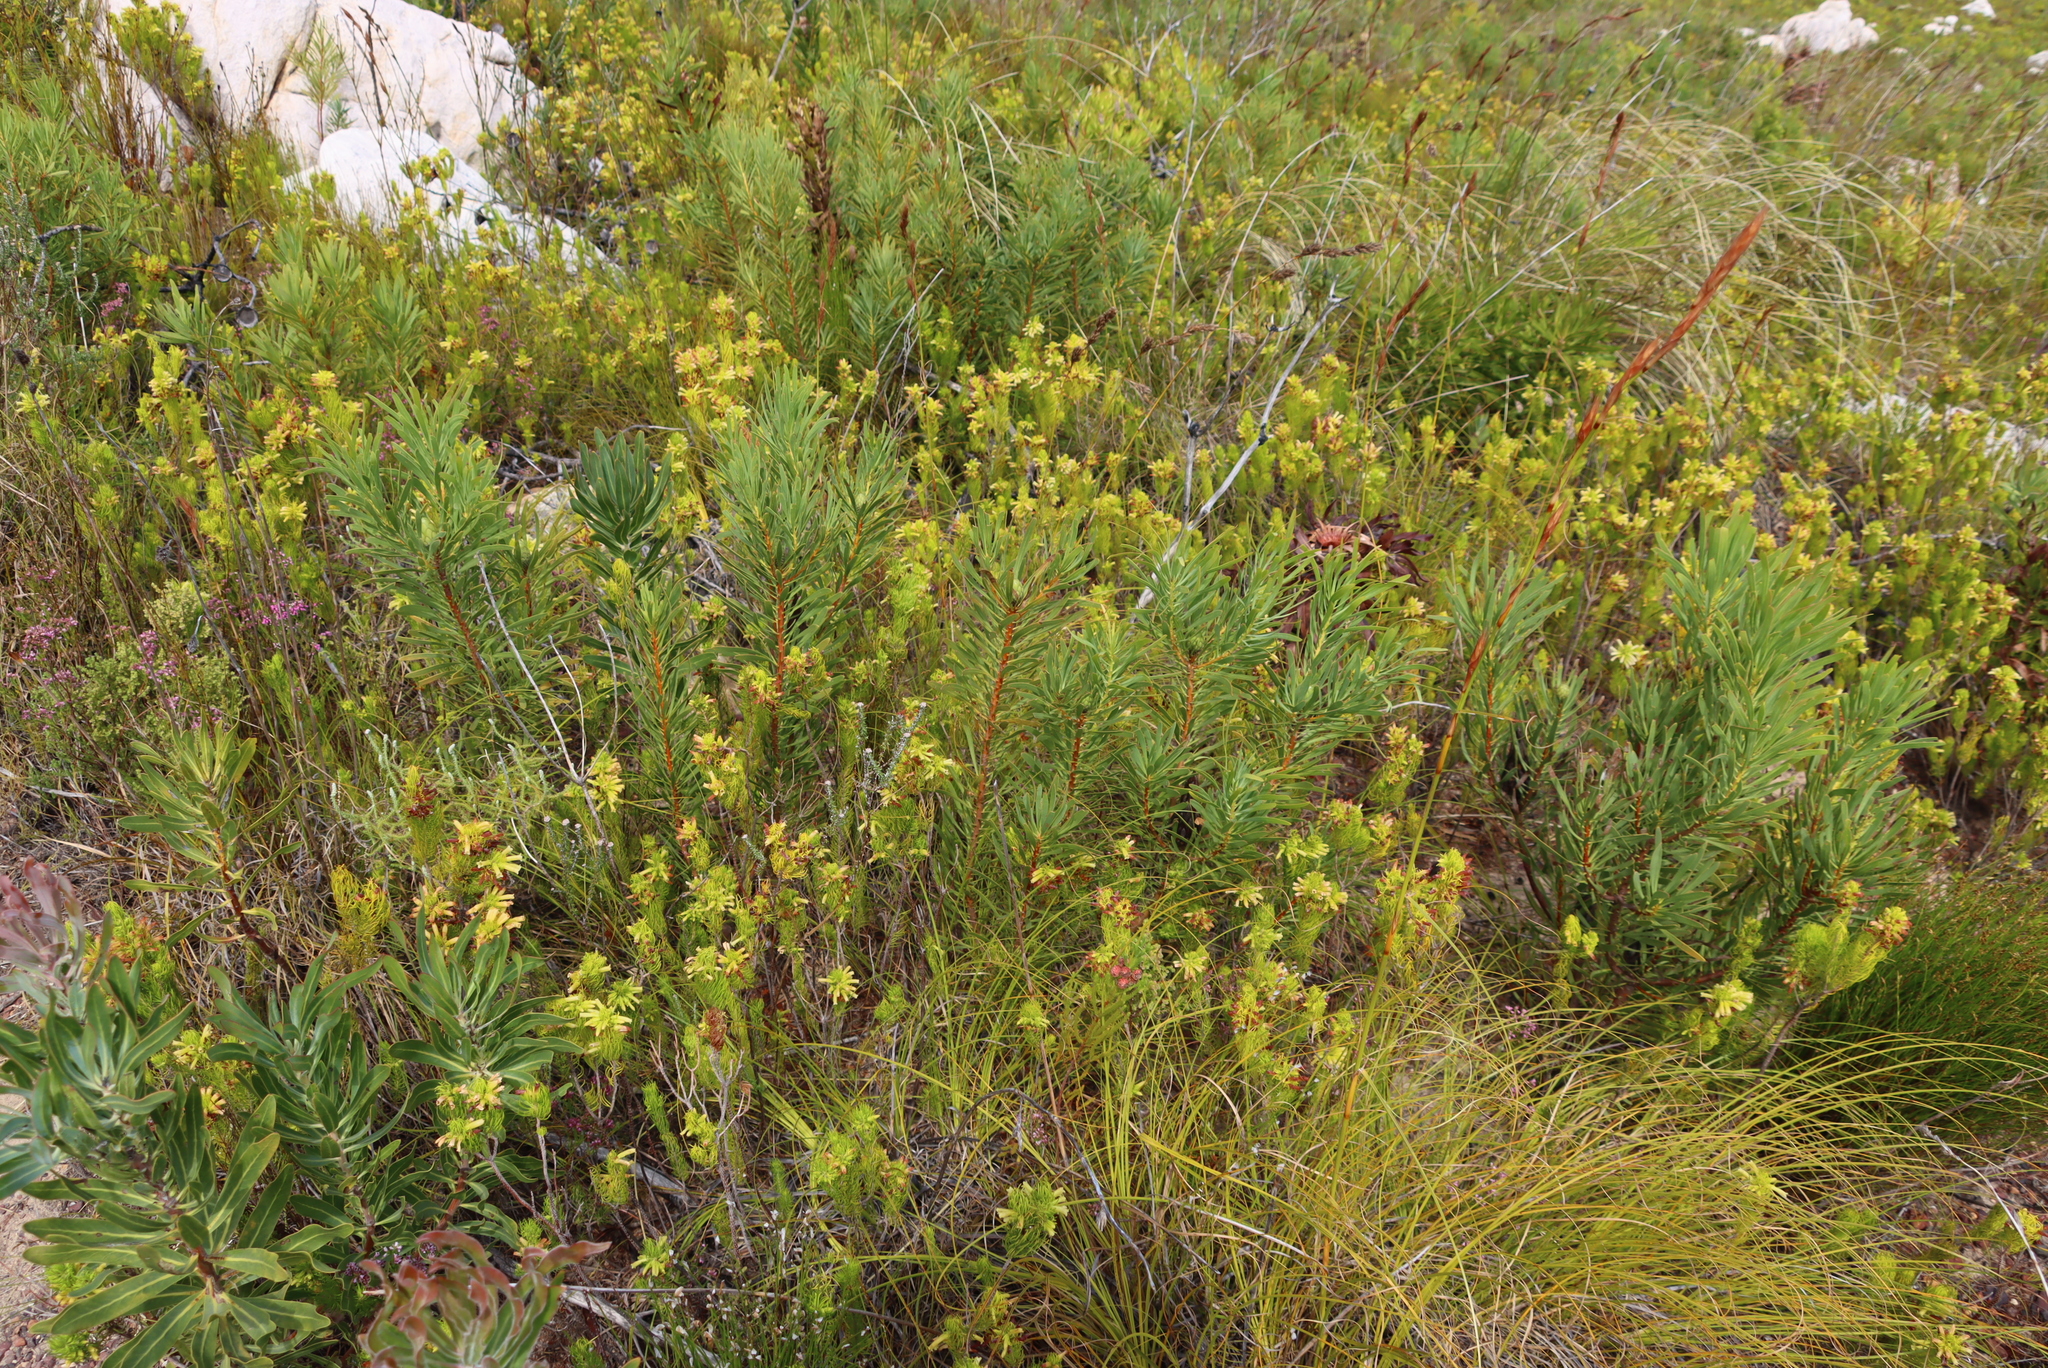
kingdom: Plantae
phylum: Tracheophyta
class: Magnoliopsida
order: Proteales
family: Proteaceae
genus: Protea
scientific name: Protea repens
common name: Sugarbush
